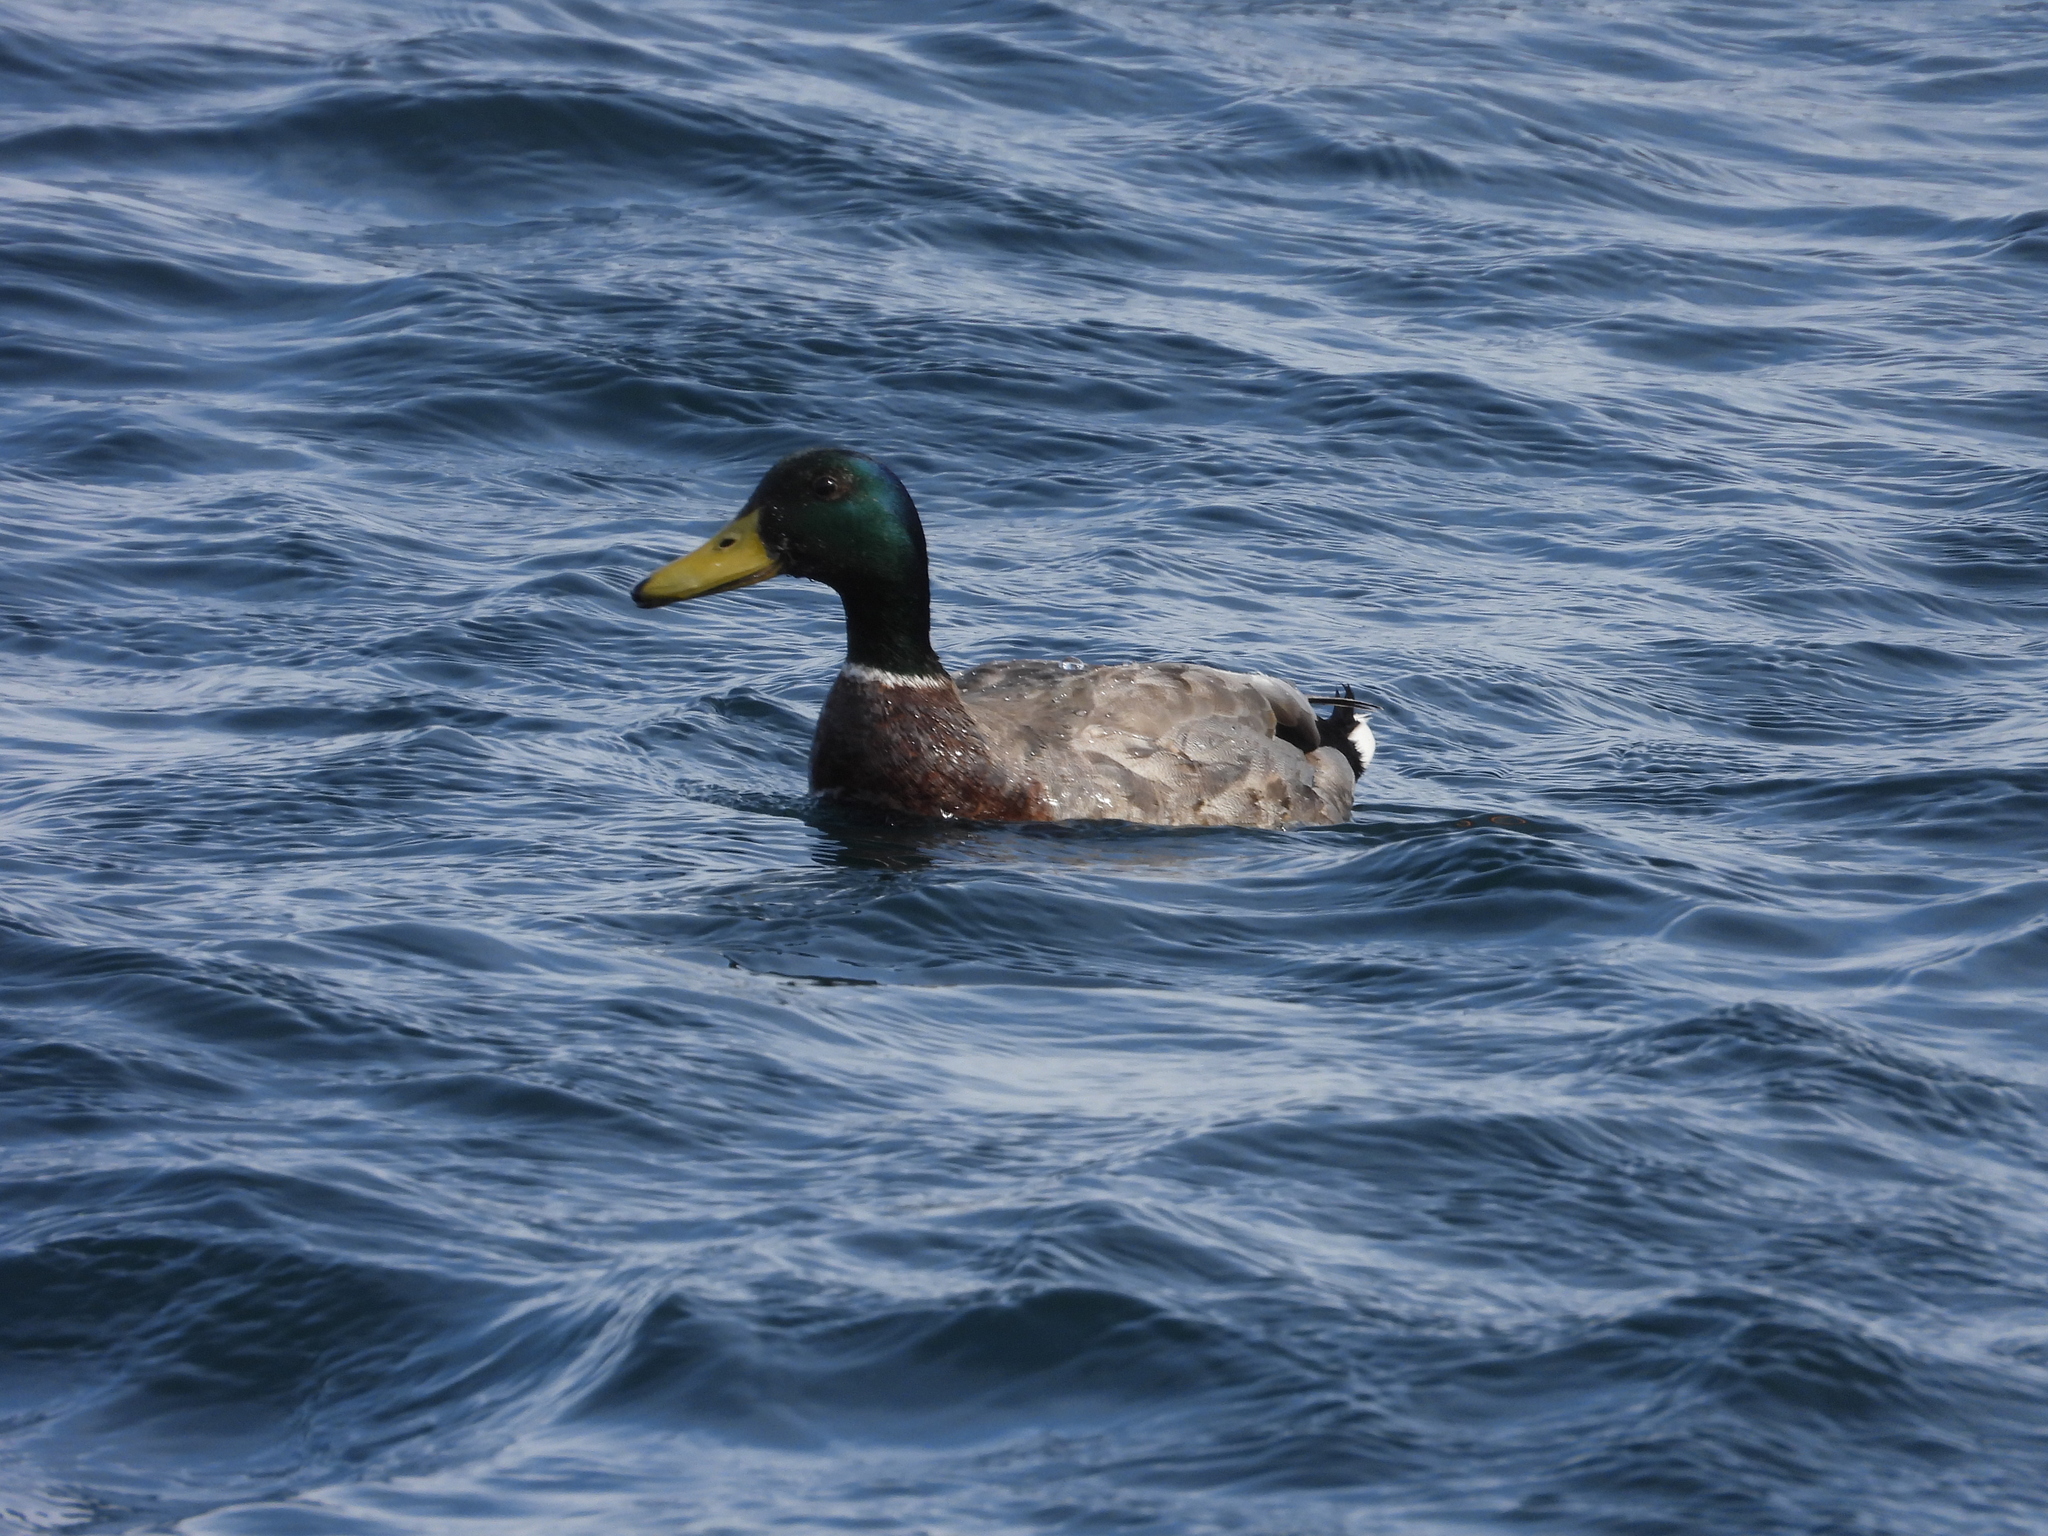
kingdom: Animalia
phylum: Chordata
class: Aves
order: Anseriformes
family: Anatidae
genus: Anas
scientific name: Anas platyrhynchos
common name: Mallard
